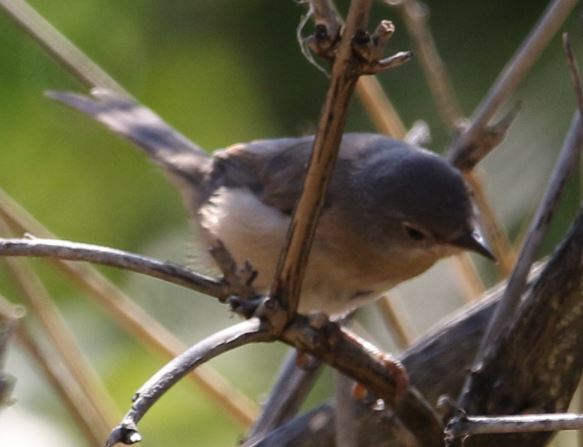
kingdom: Animalia
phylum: Chordata
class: Aves
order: Passeriformes
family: Sylviidae
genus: Curruca
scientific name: Curruca iberiae
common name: Western subalpine warbler
